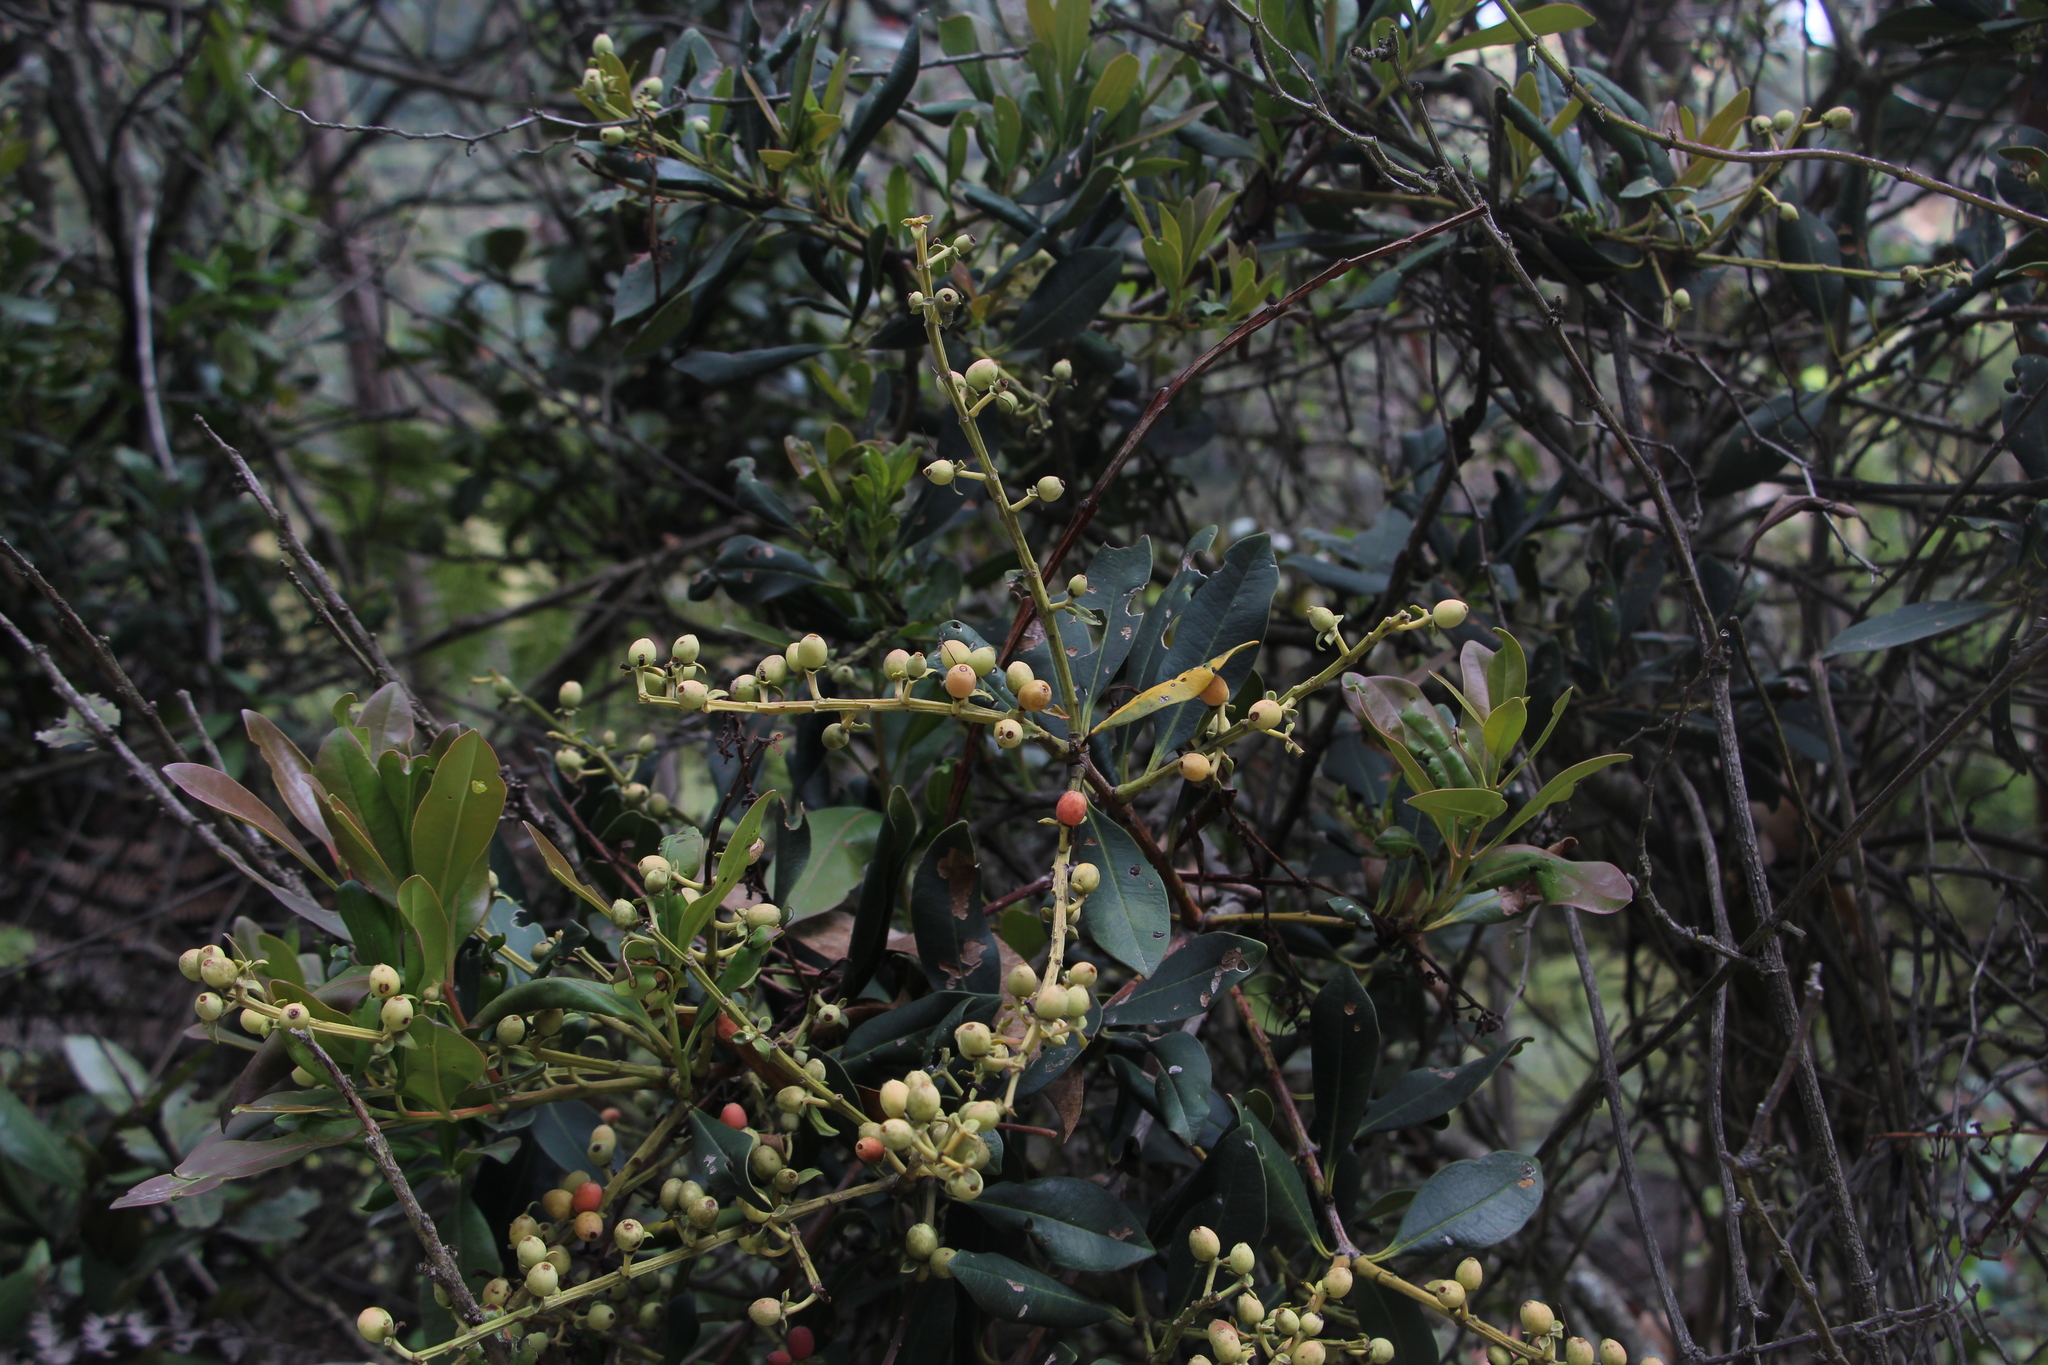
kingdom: Plantae
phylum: Tracheophyta
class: Magnoliopsida
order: Santalales
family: Loranthaceae
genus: Gaiadendron
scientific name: Gaiadendron punctatum
